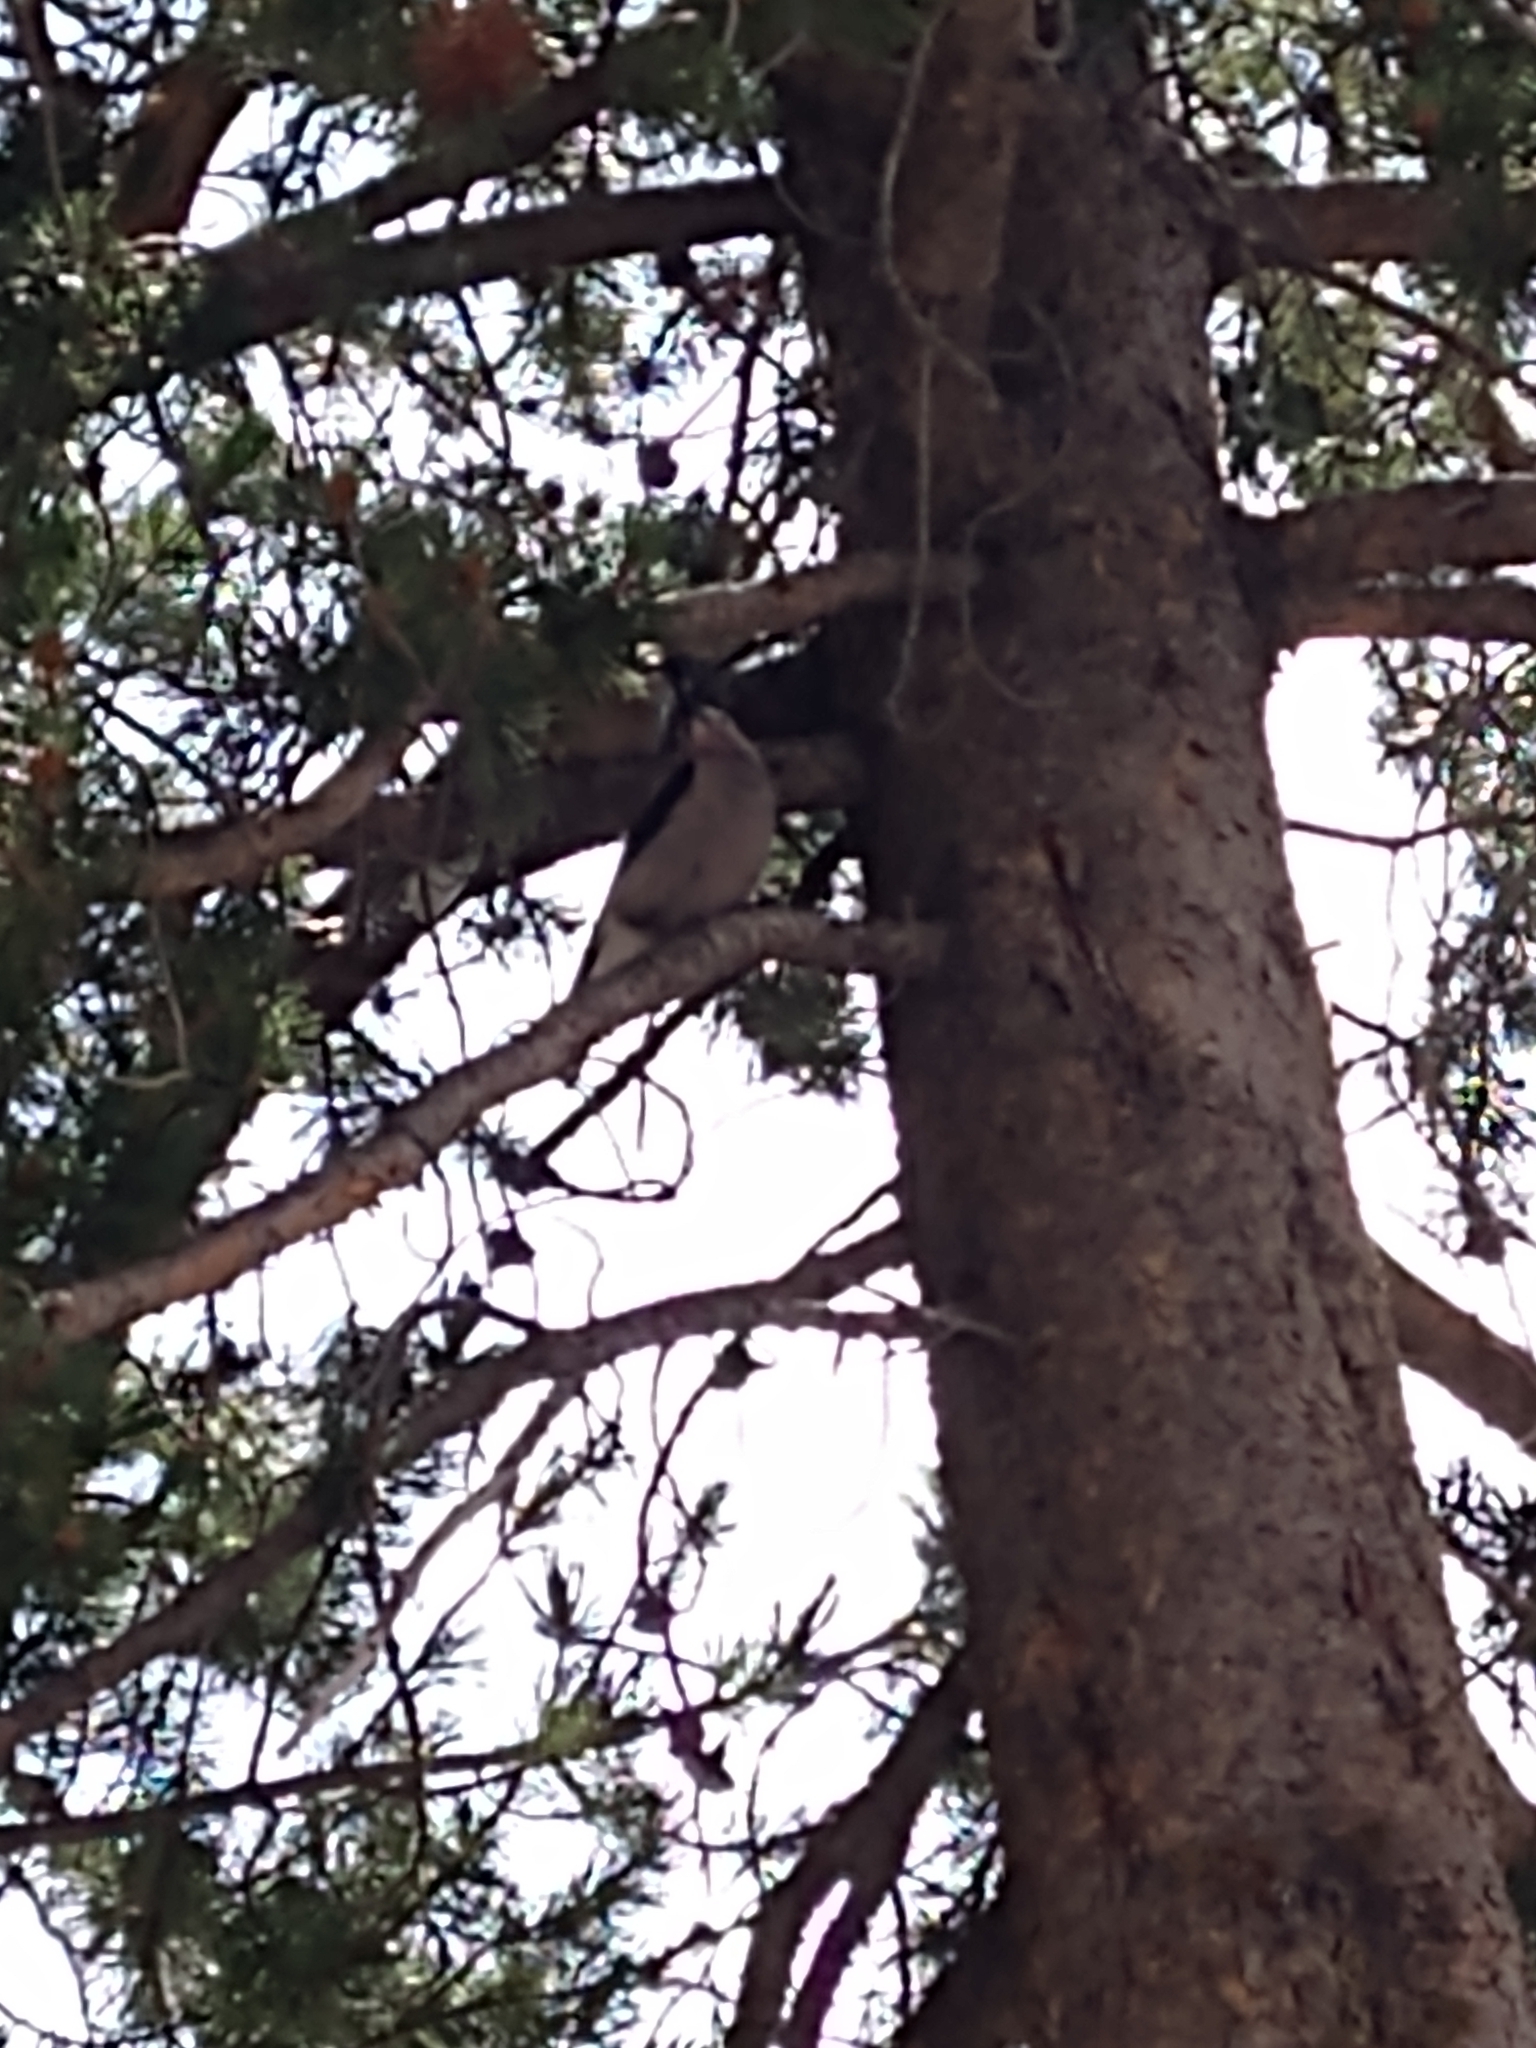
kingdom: Animalia
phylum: Chordata
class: Aves
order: Passeriformes
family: Corvidae
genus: Nucifraga
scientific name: Nucifraga columbiana
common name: Clark's nutcracker
